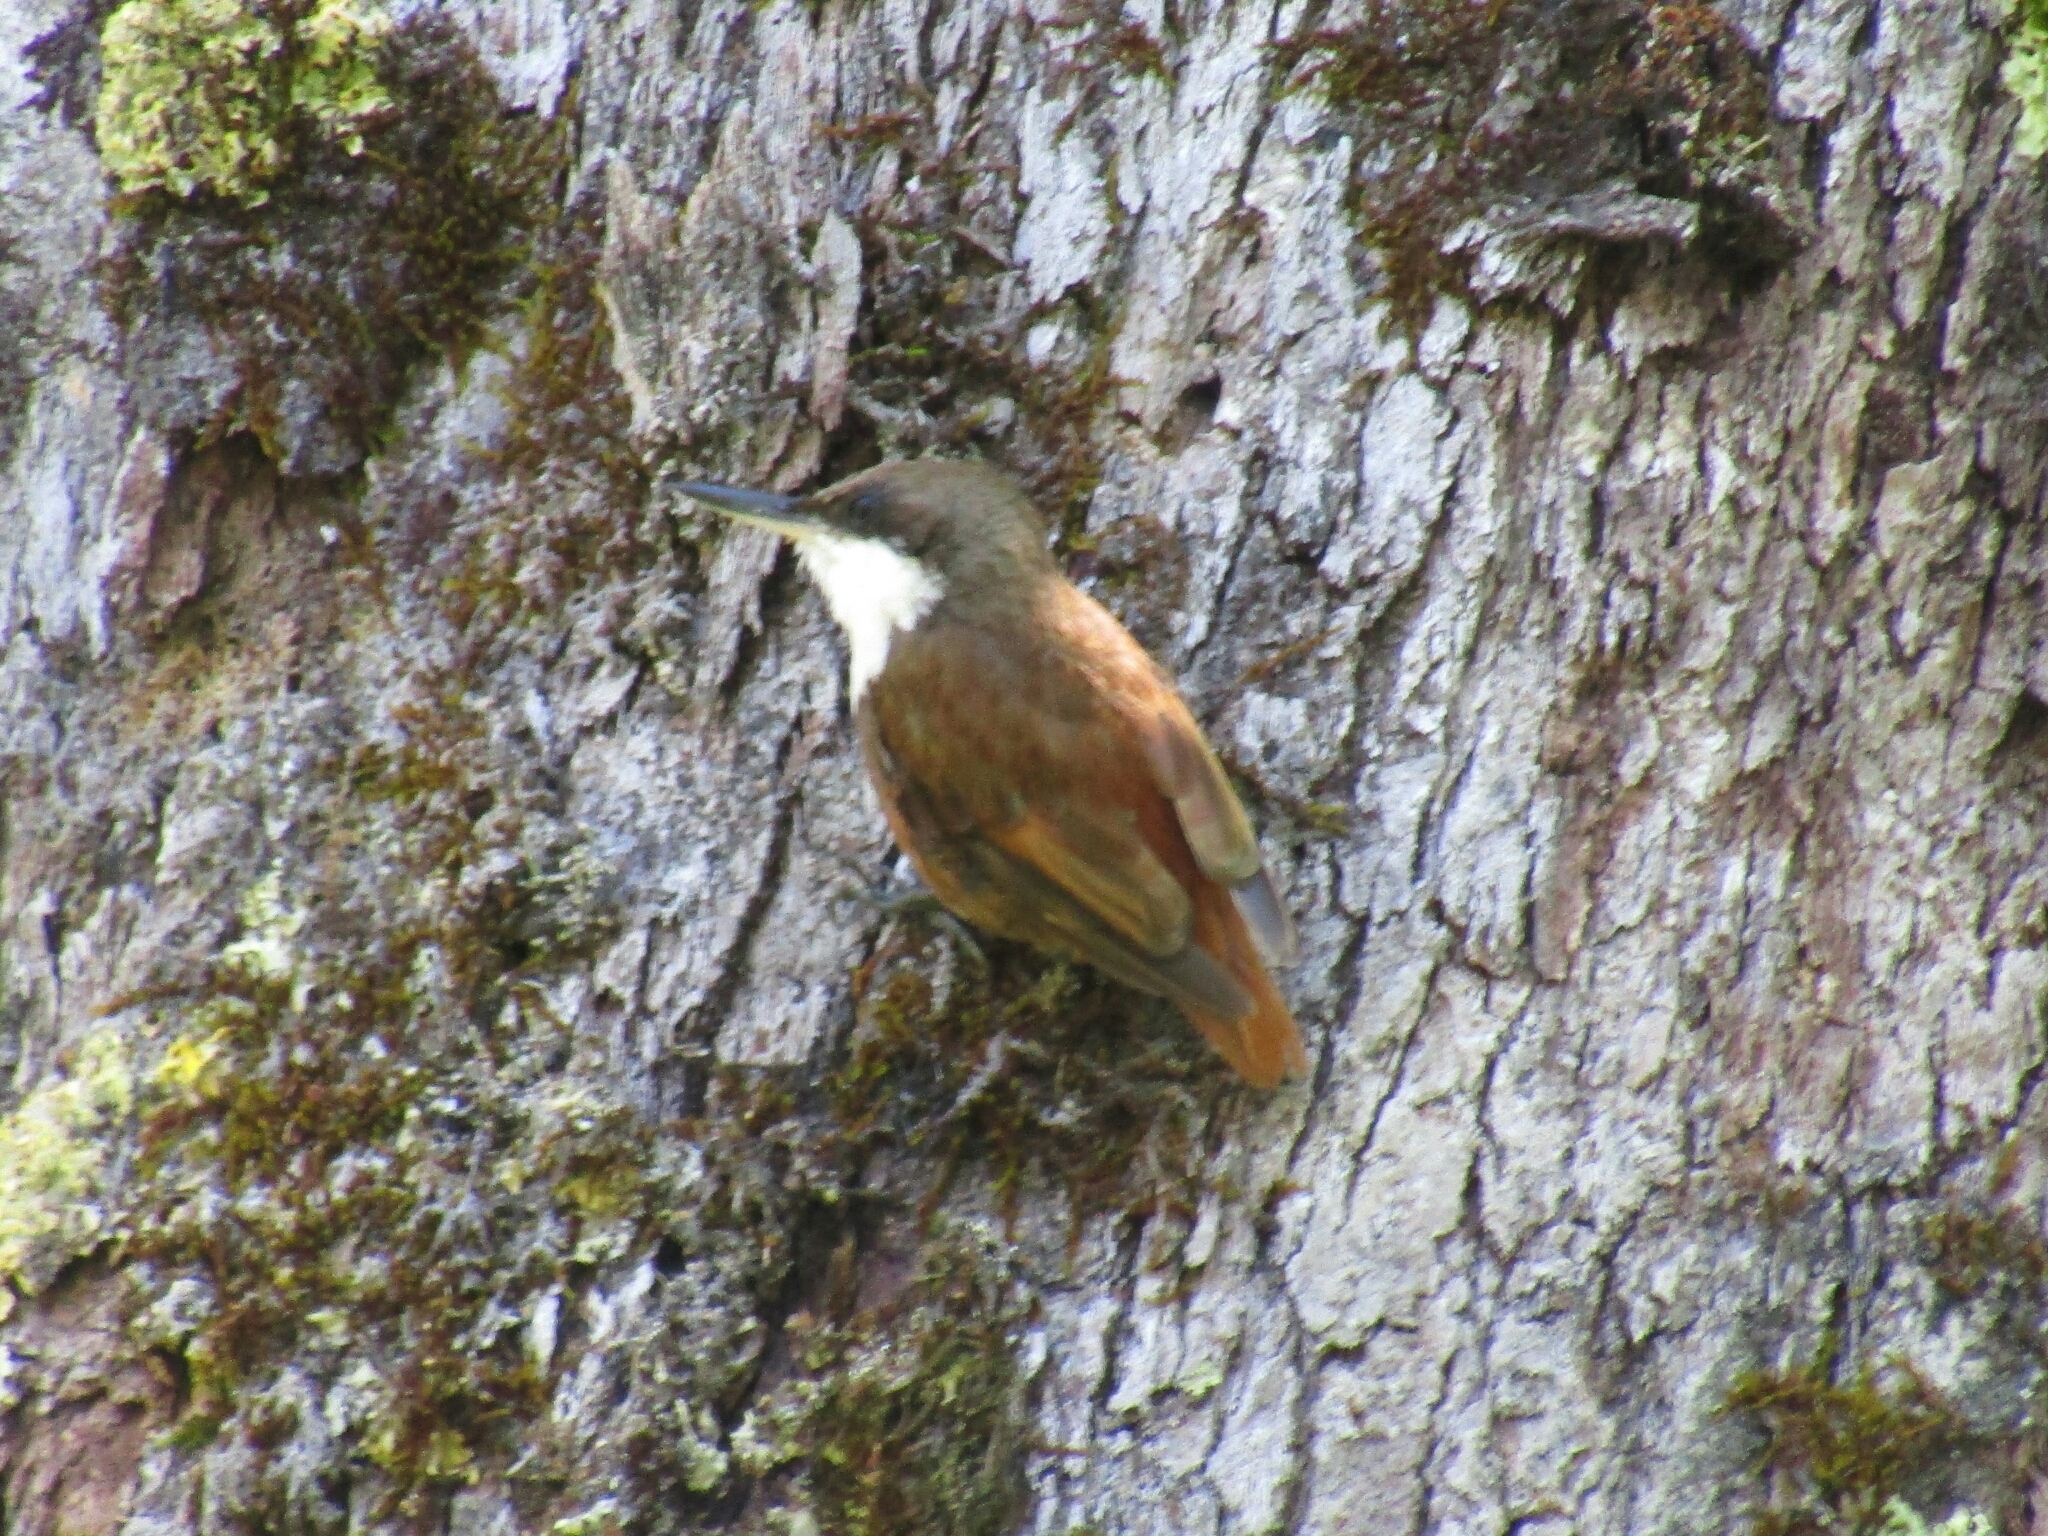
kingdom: Animalia
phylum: Chordata
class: Aves
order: Passeriformes
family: Furnariidae
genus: Pygarrhichas
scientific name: Pygarrhichas albogularis
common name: White-throated treerunner
